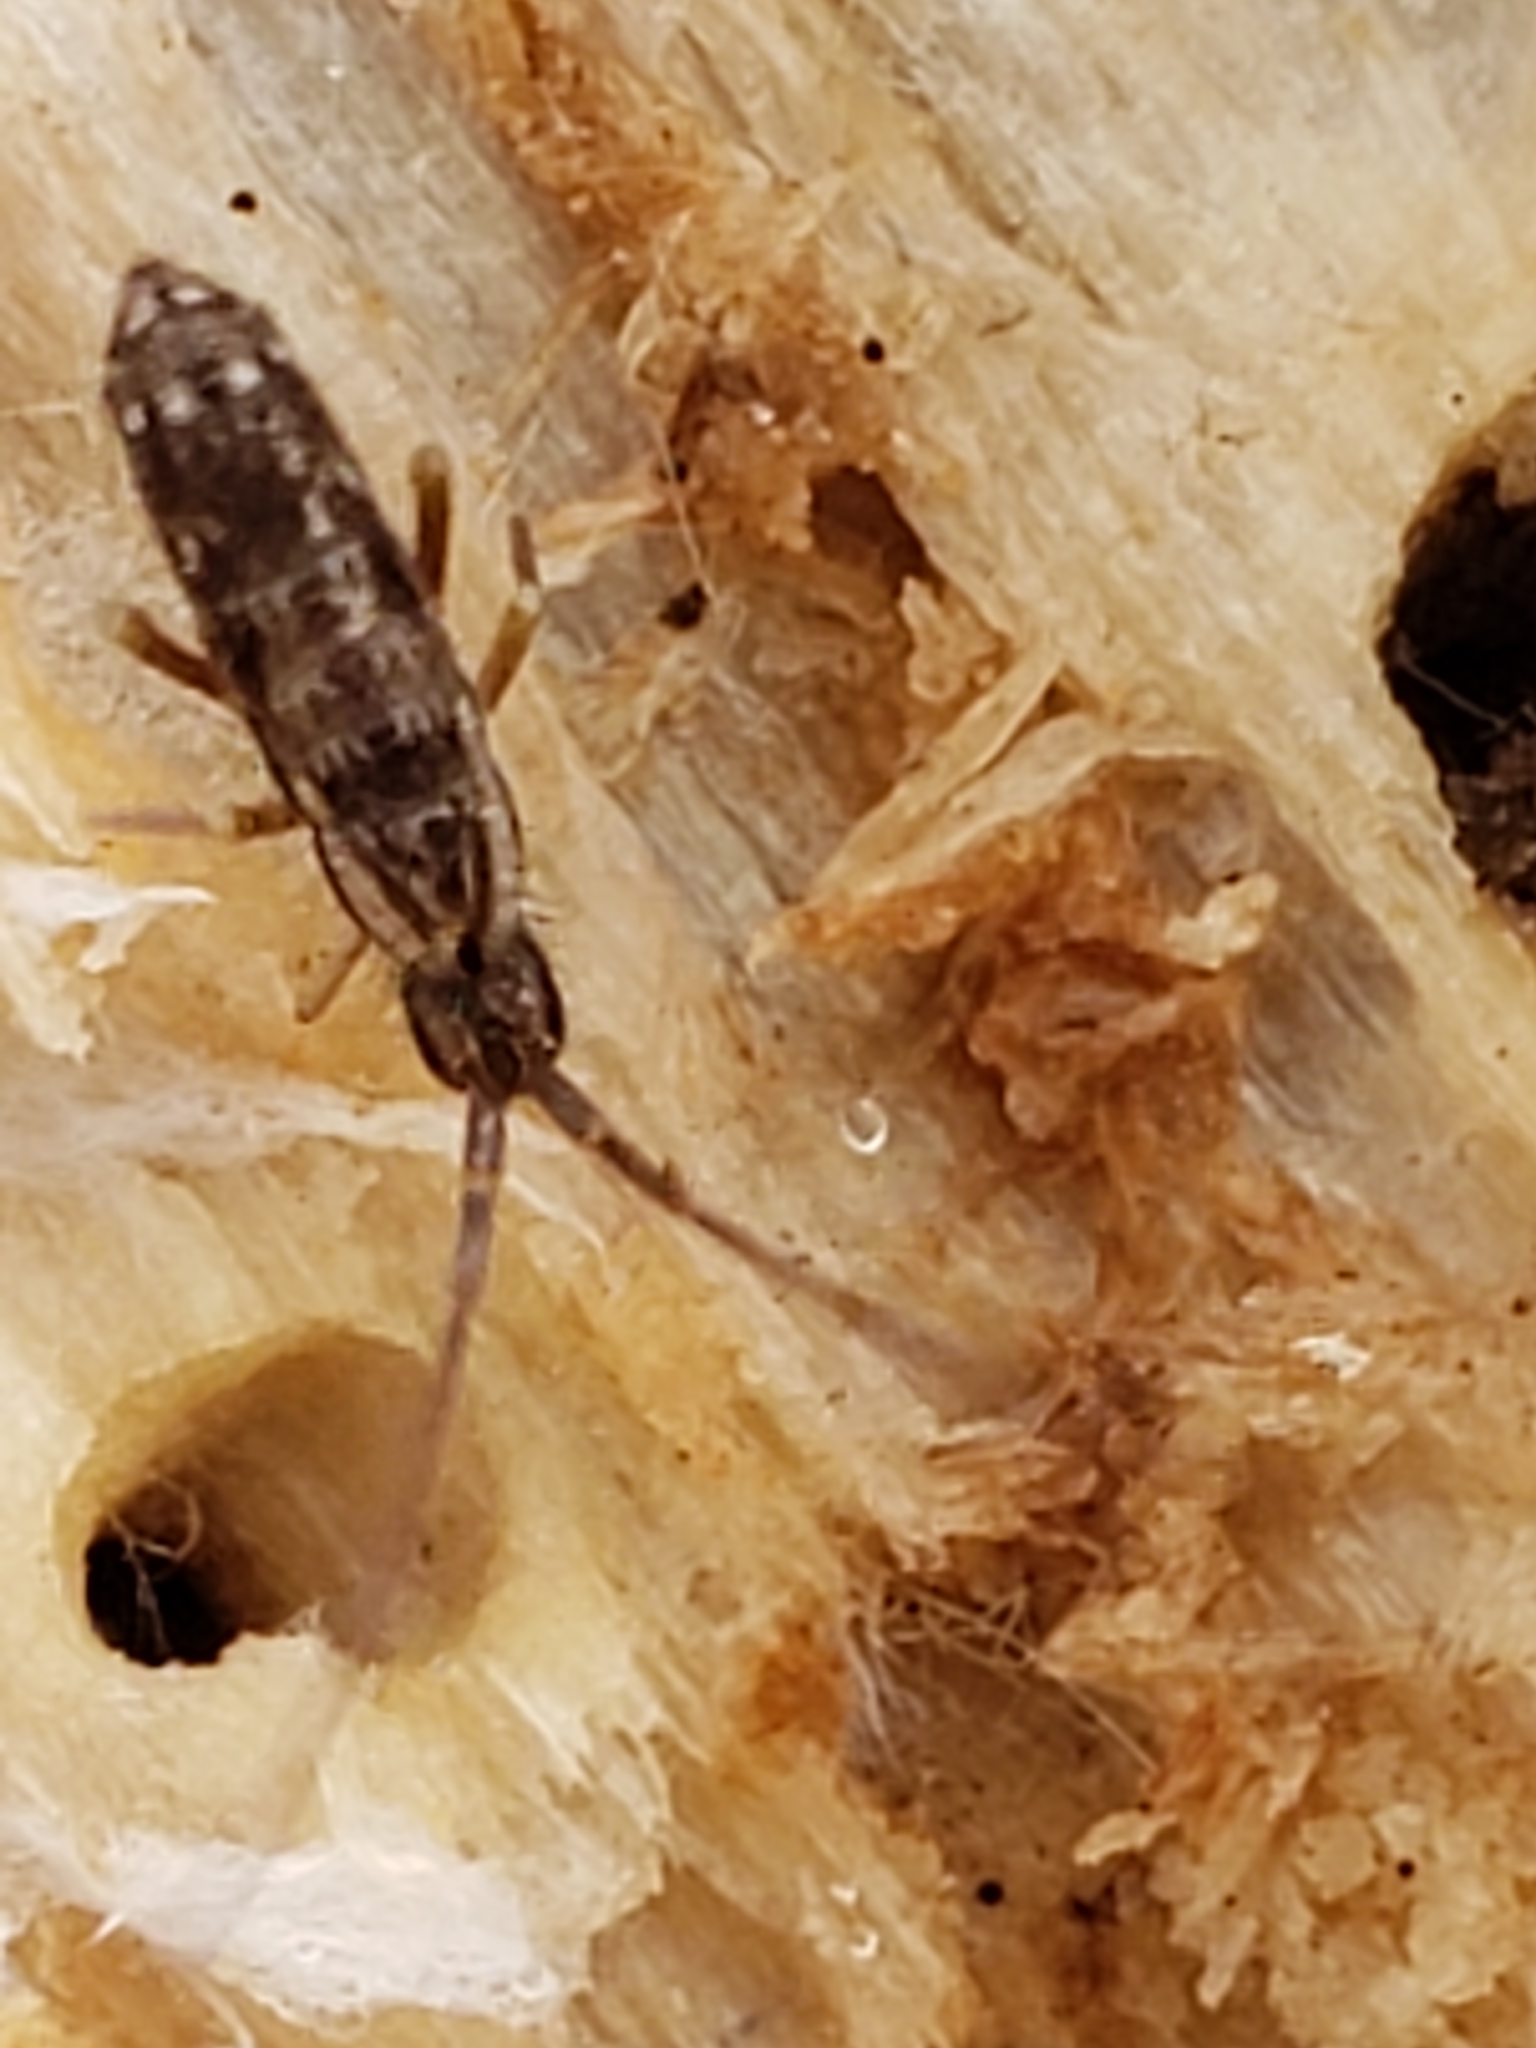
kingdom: Animalia
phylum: Arthropoda
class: Collembola
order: Entomobryomorpha
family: Tomoceridae
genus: Pogonognathellus
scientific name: Pogonognathellus elongatus
